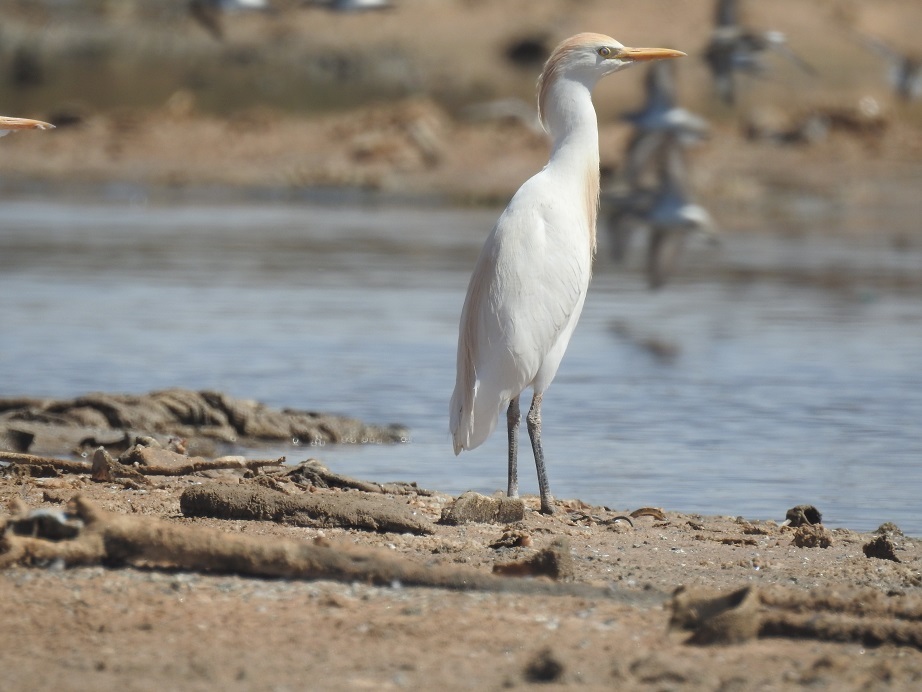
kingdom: Animalia
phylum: Chordata
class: Aves
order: Pelecaniformes
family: Ardeidae
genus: Bubulcus
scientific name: Bubulcus ibis
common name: Cattle egret
